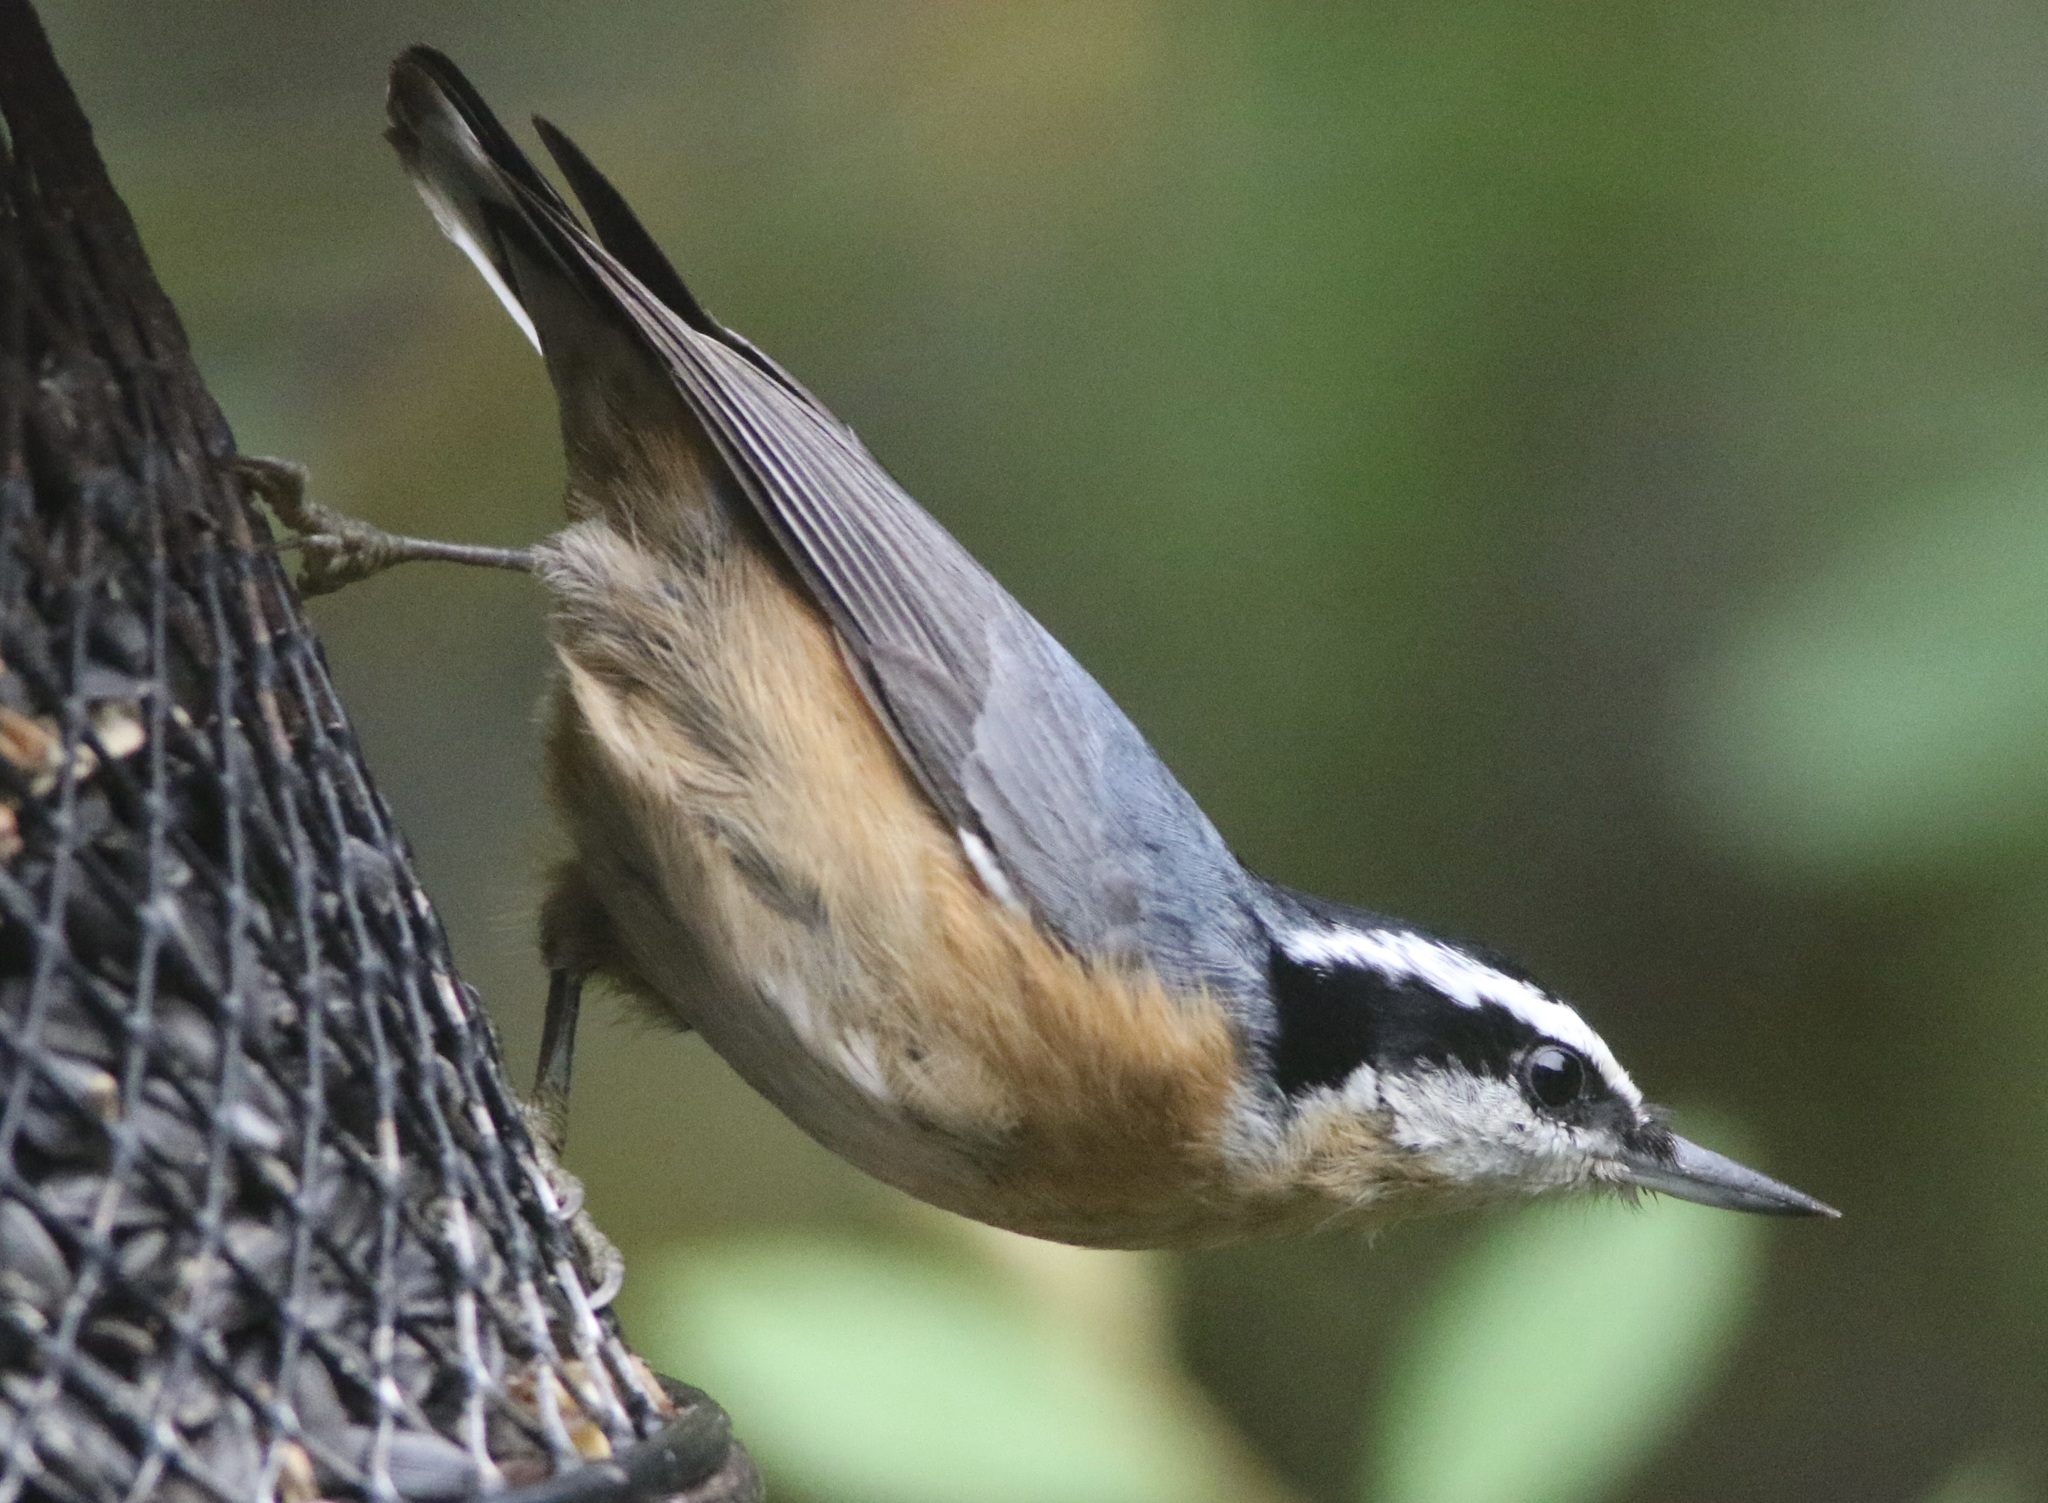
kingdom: Animalia
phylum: Chordata
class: Aves
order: Passeriformes
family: Sittidae
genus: Sitta
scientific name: Sitta canadensis
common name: Red-breasted nuthatch
